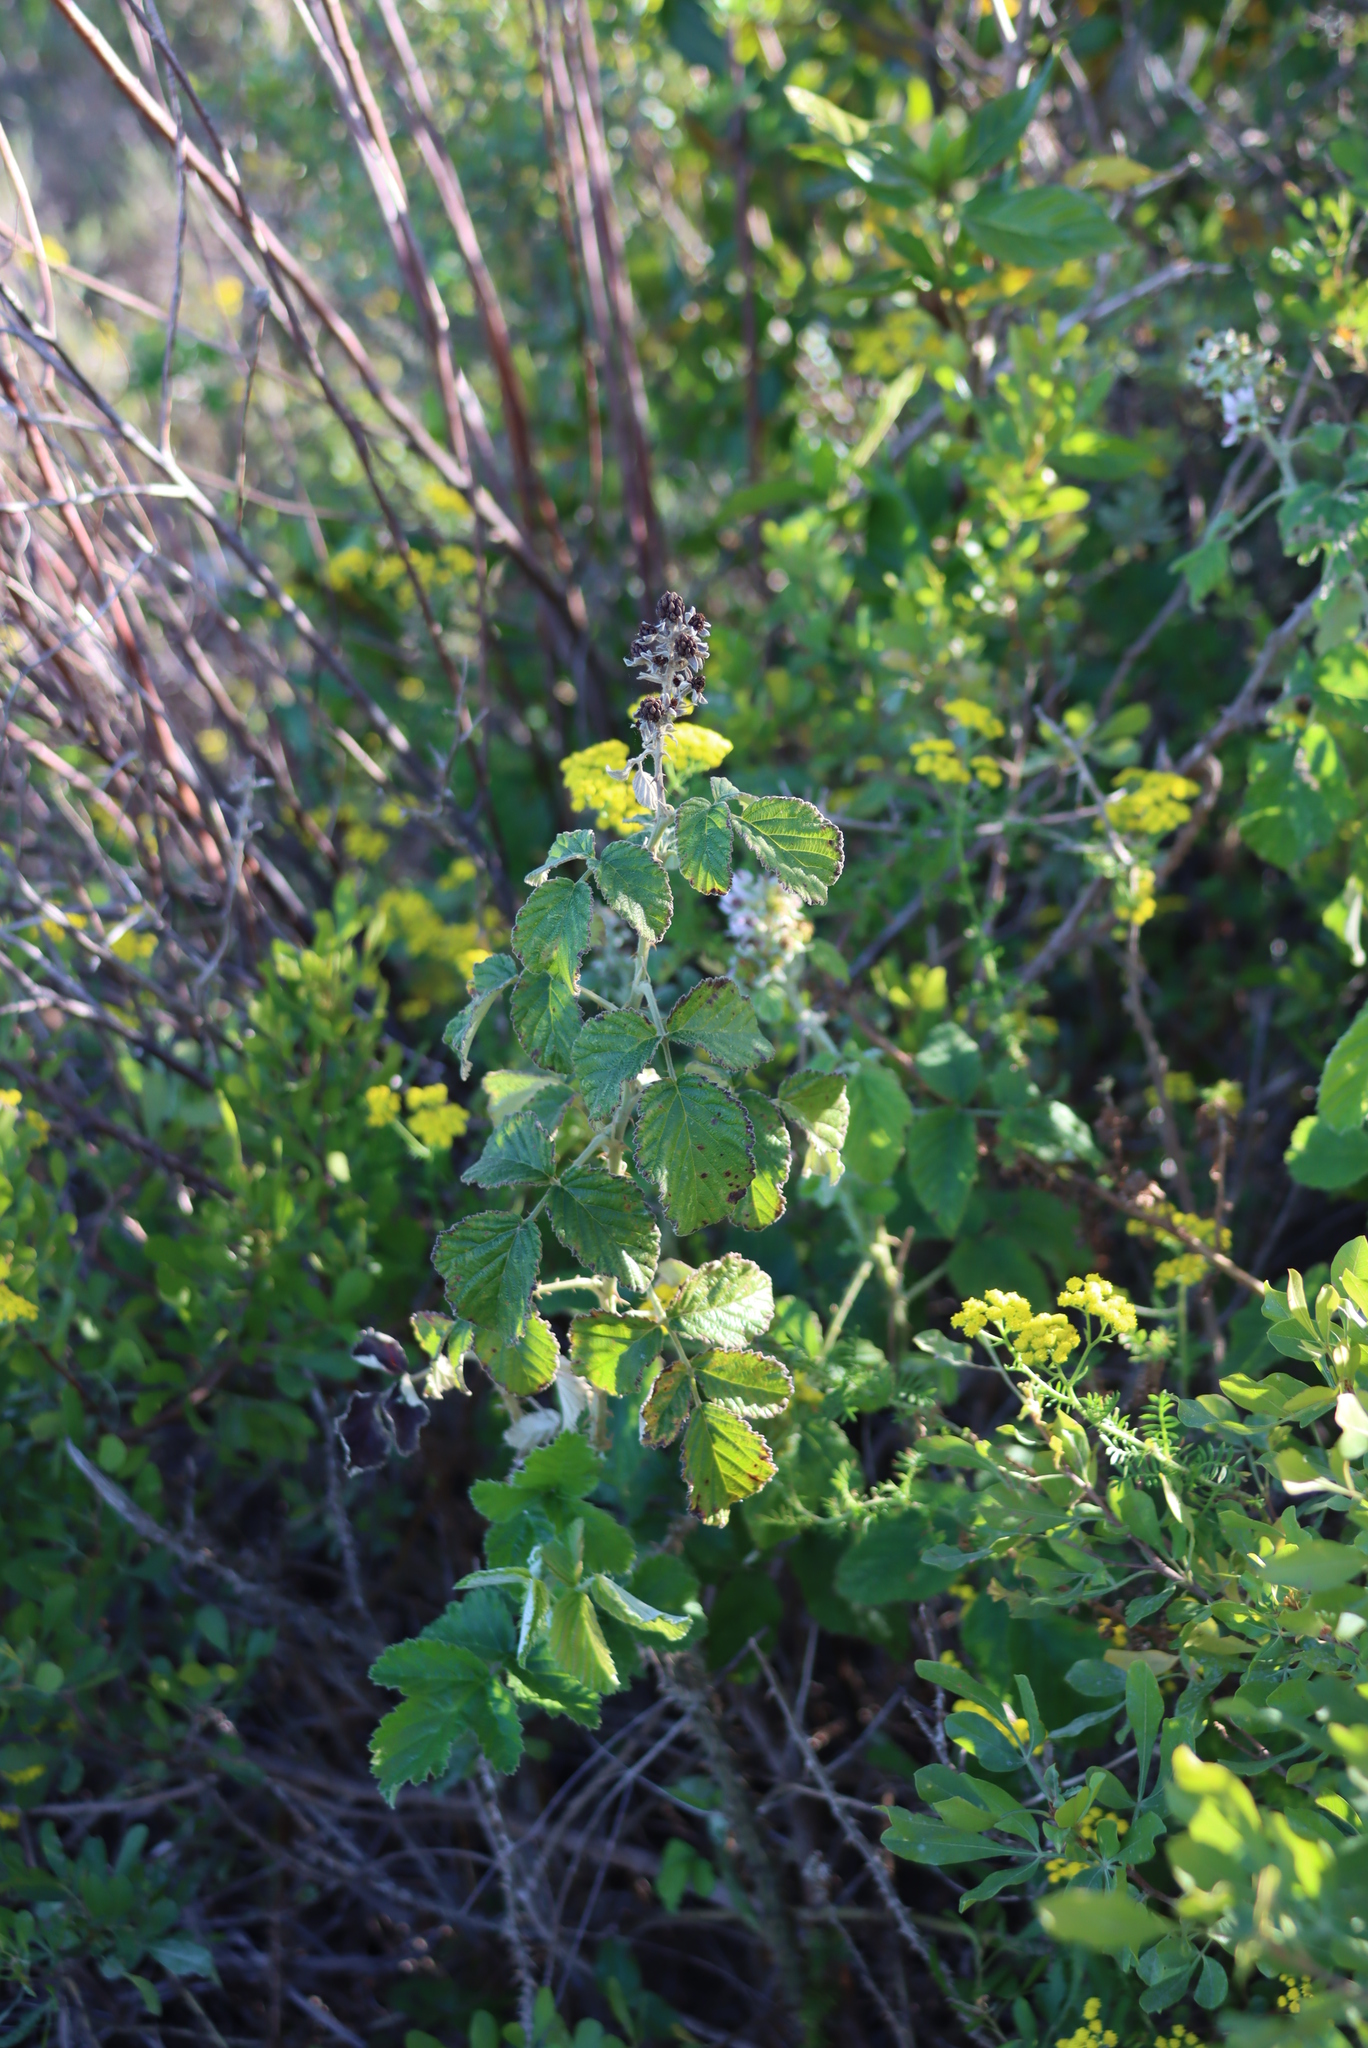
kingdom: Plantae
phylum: Tracheophyta
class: Magnoliopsida
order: Rosales
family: Rosaceae
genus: Rubus
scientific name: Rubus rigidus
